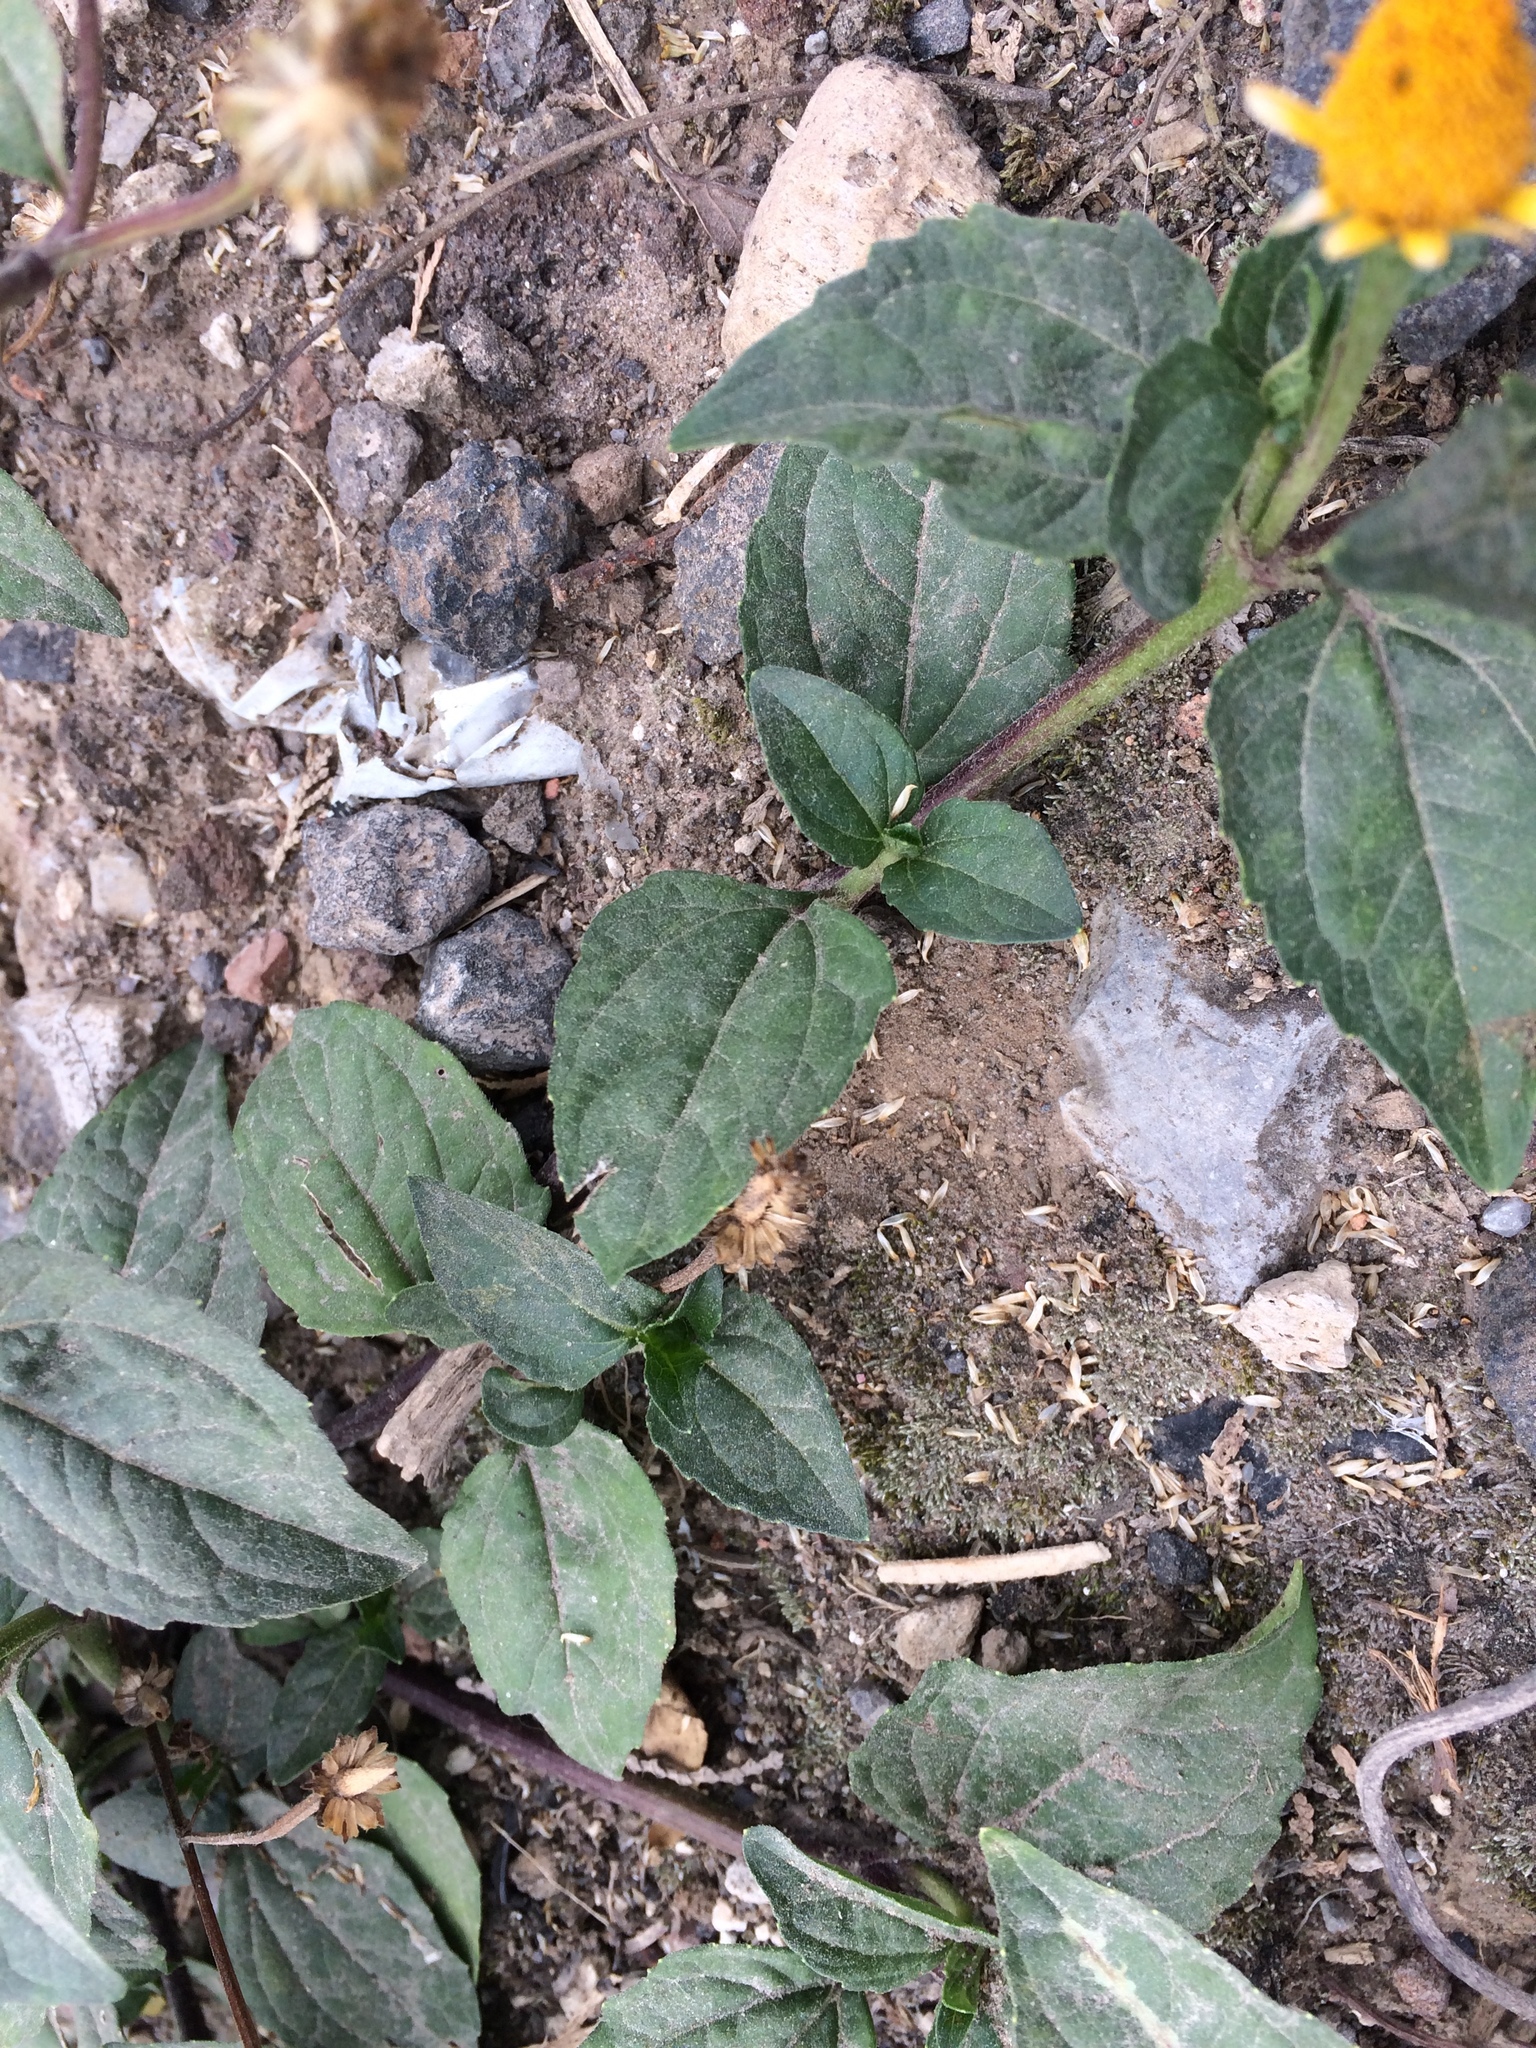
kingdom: Plantae
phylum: Tracheophyta
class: Magnoliopsida
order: Asterales
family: Asteraceae
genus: Acmella
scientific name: Acmella repens
